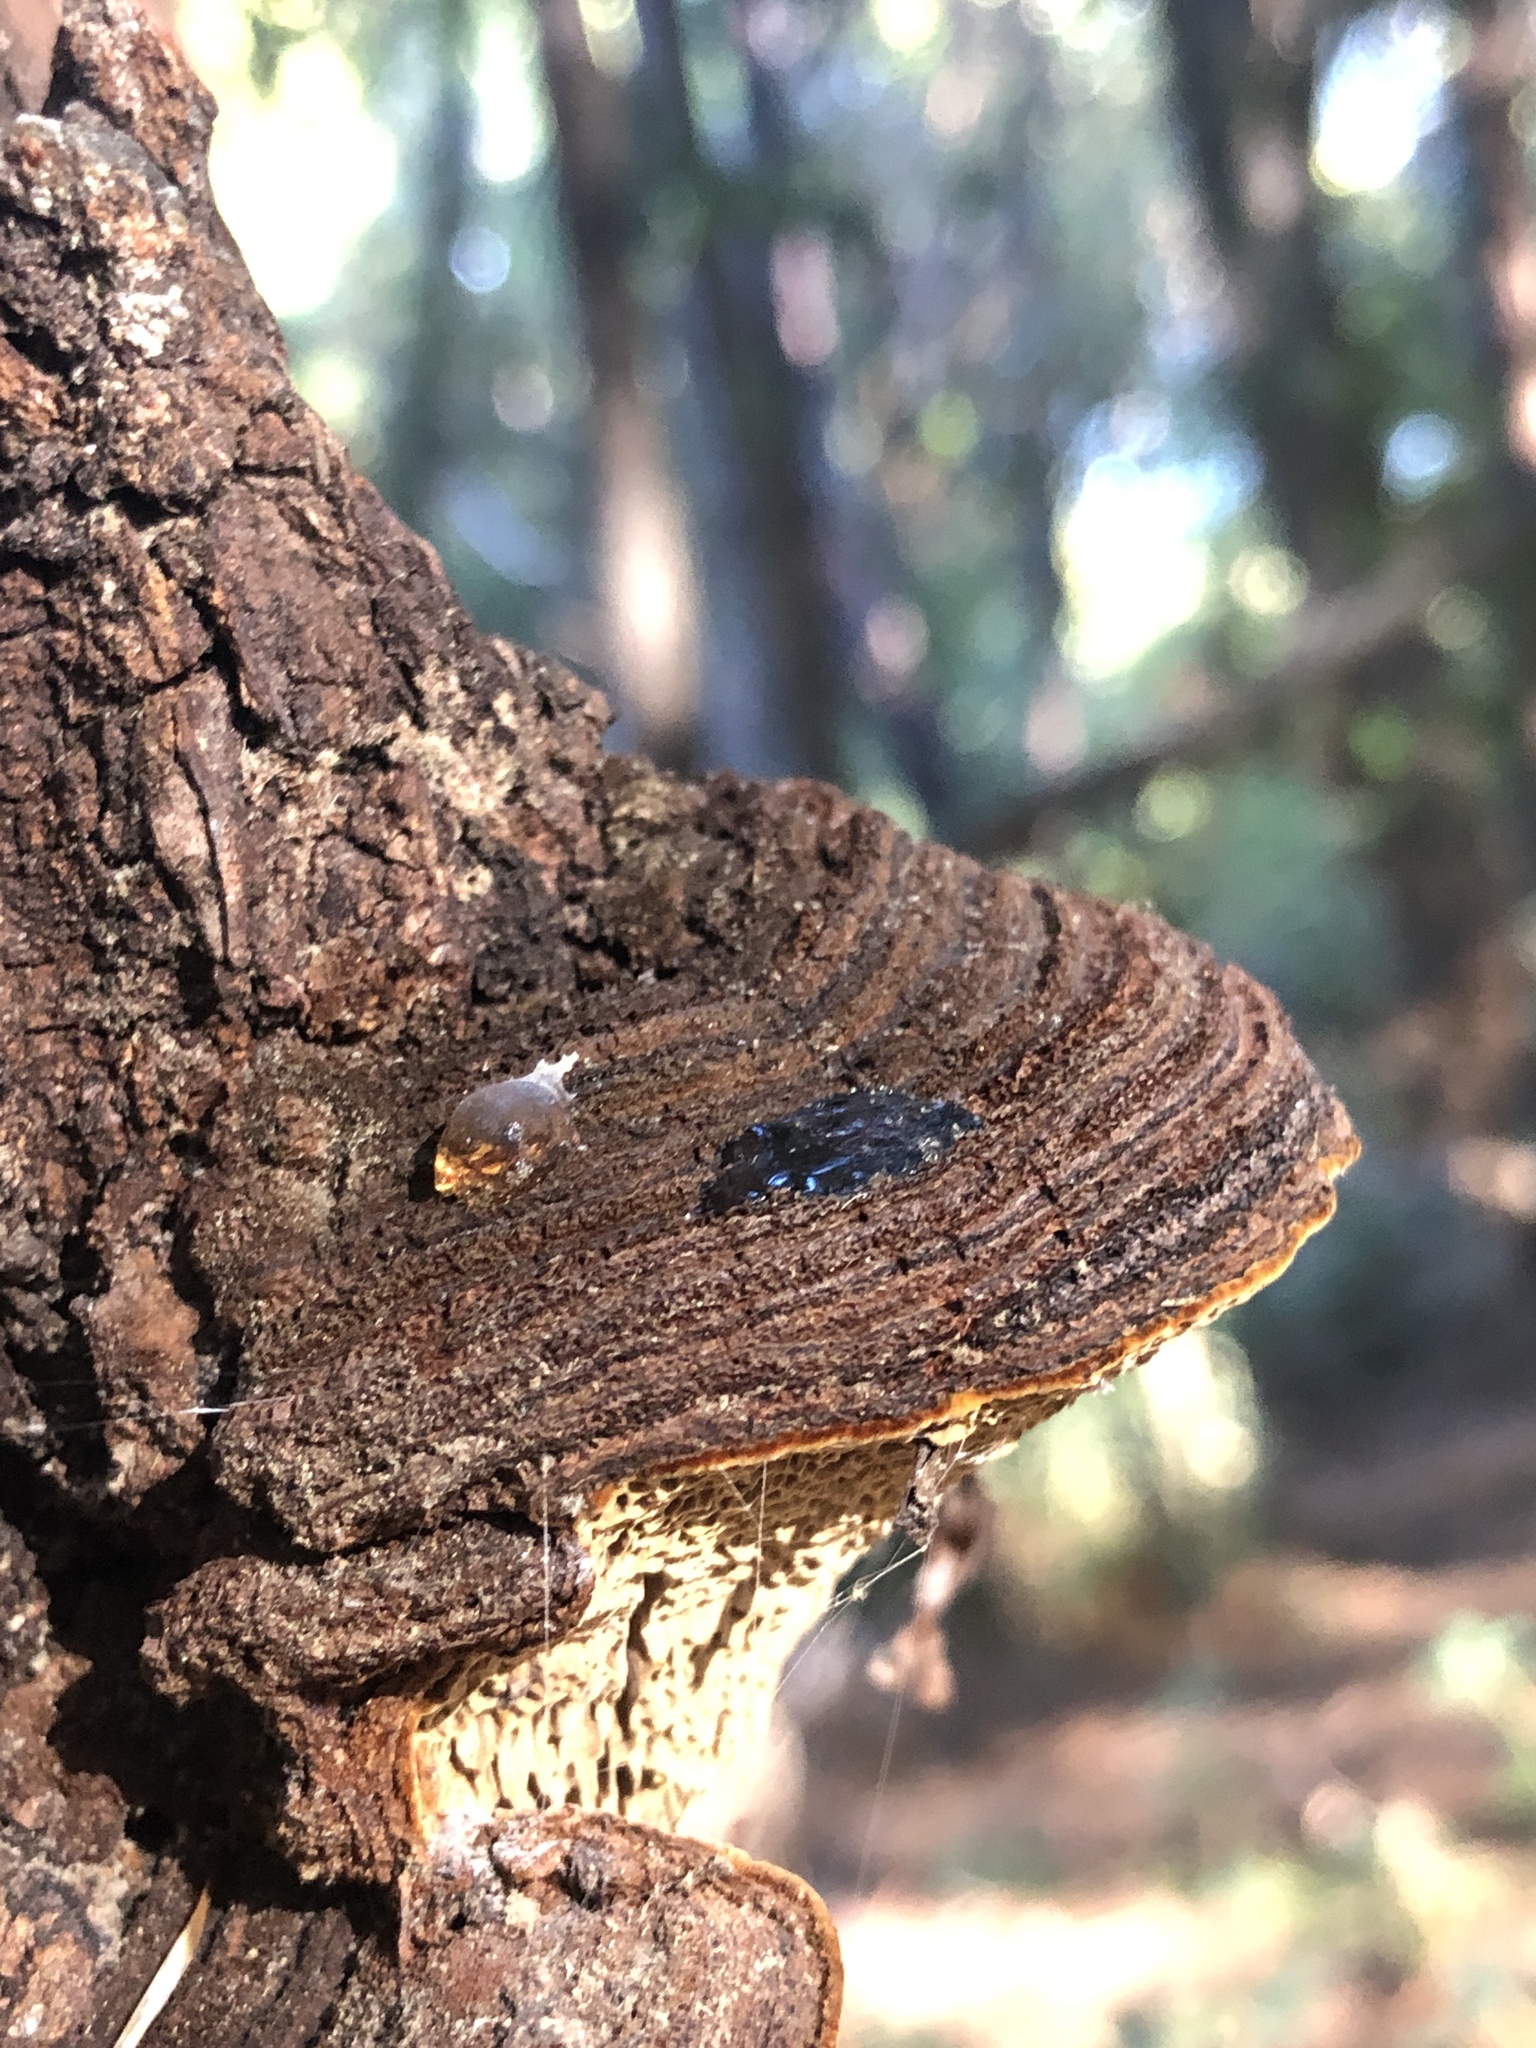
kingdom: Fungi
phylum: Basidiomycota
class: Agaricomycetes
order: Hymenochaetales
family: Hymenochaetaceae
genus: Porodaedalea
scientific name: Porodaedalea pini
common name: Pine bracket
